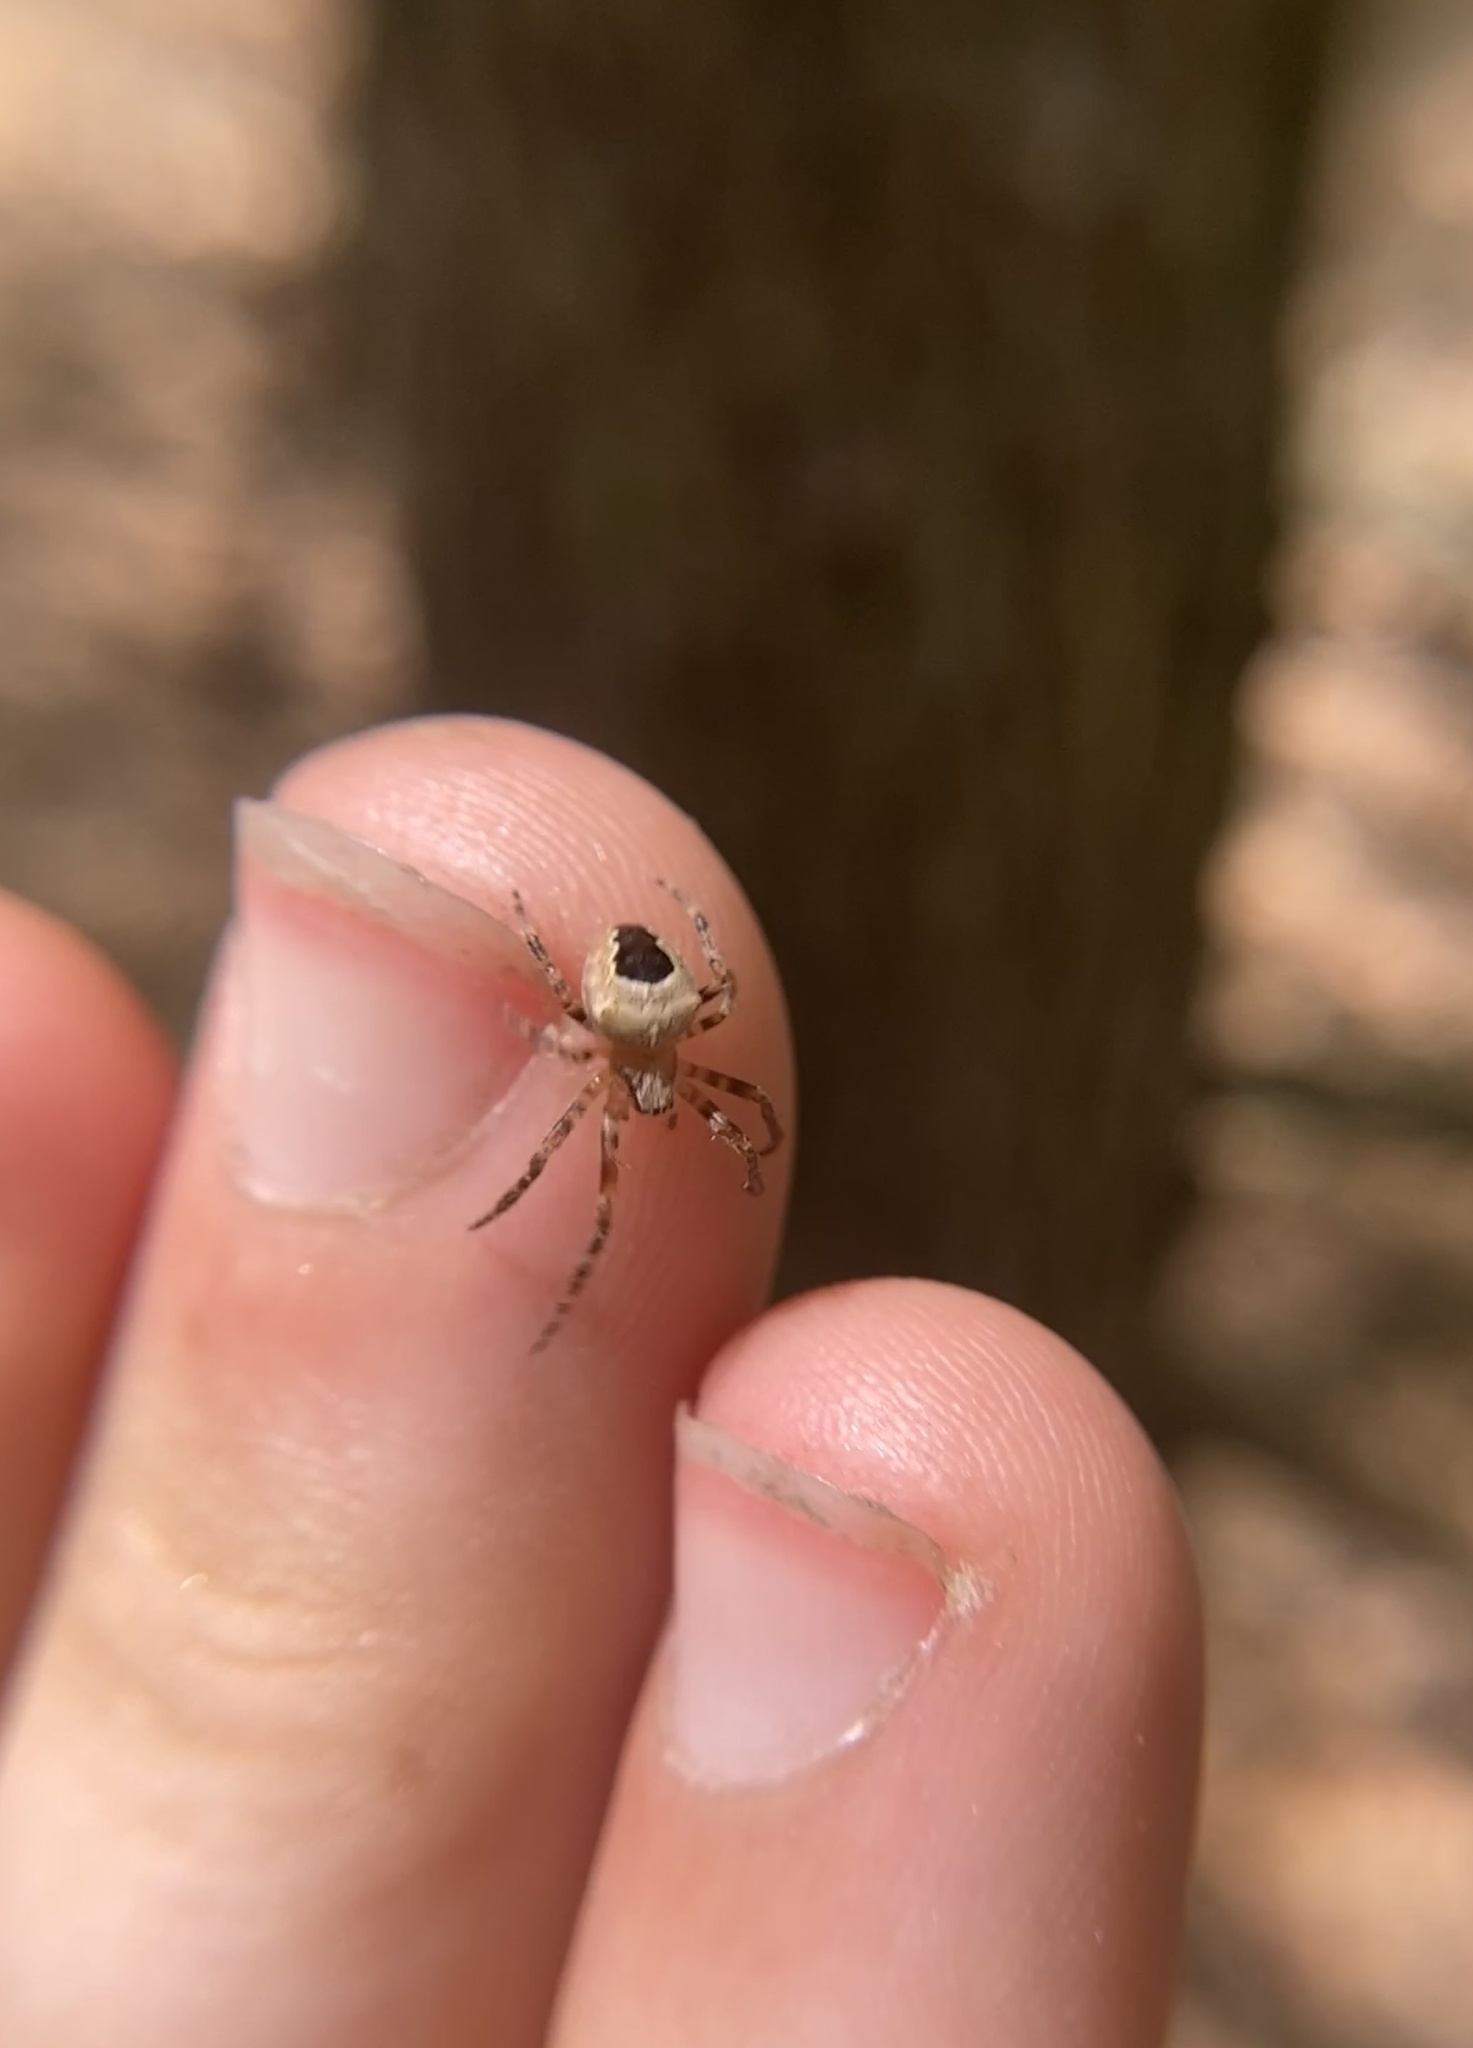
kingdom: Animalia
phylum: Arthropoda
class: Arachnida
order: Araneae
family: Araneidae
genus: Araneus
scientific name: Araneus marmoreus
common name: Marbled orbweaver
